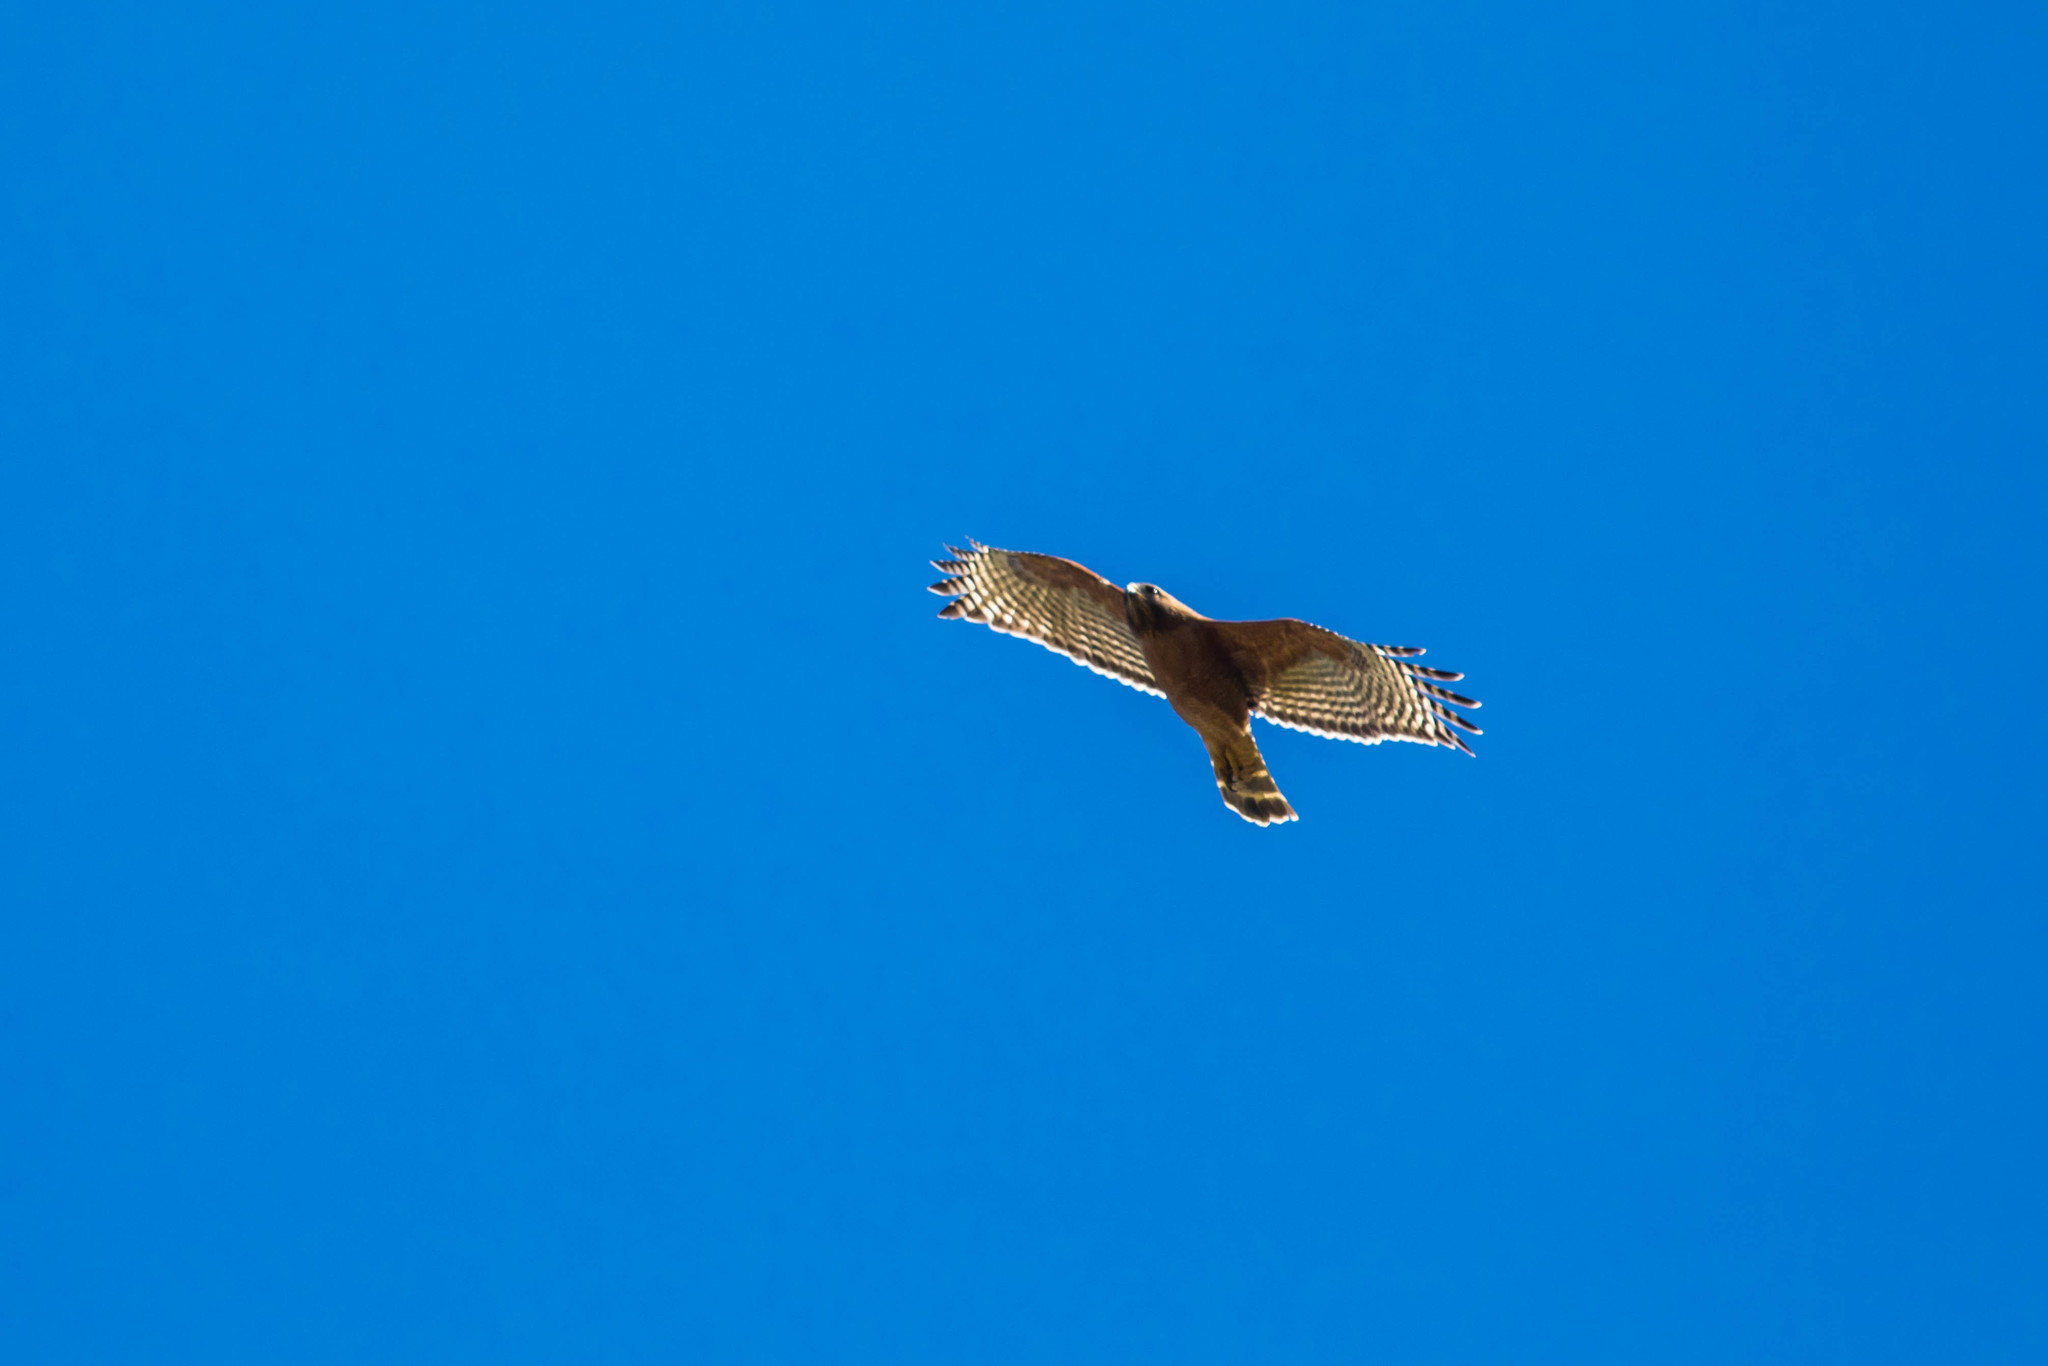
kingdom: Animalia
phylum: Chordata
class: Aves
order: Accipitriformes
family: Accipitridae
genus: Buteo
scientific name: Buteo lineatus
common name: Red-shouldered hawk
